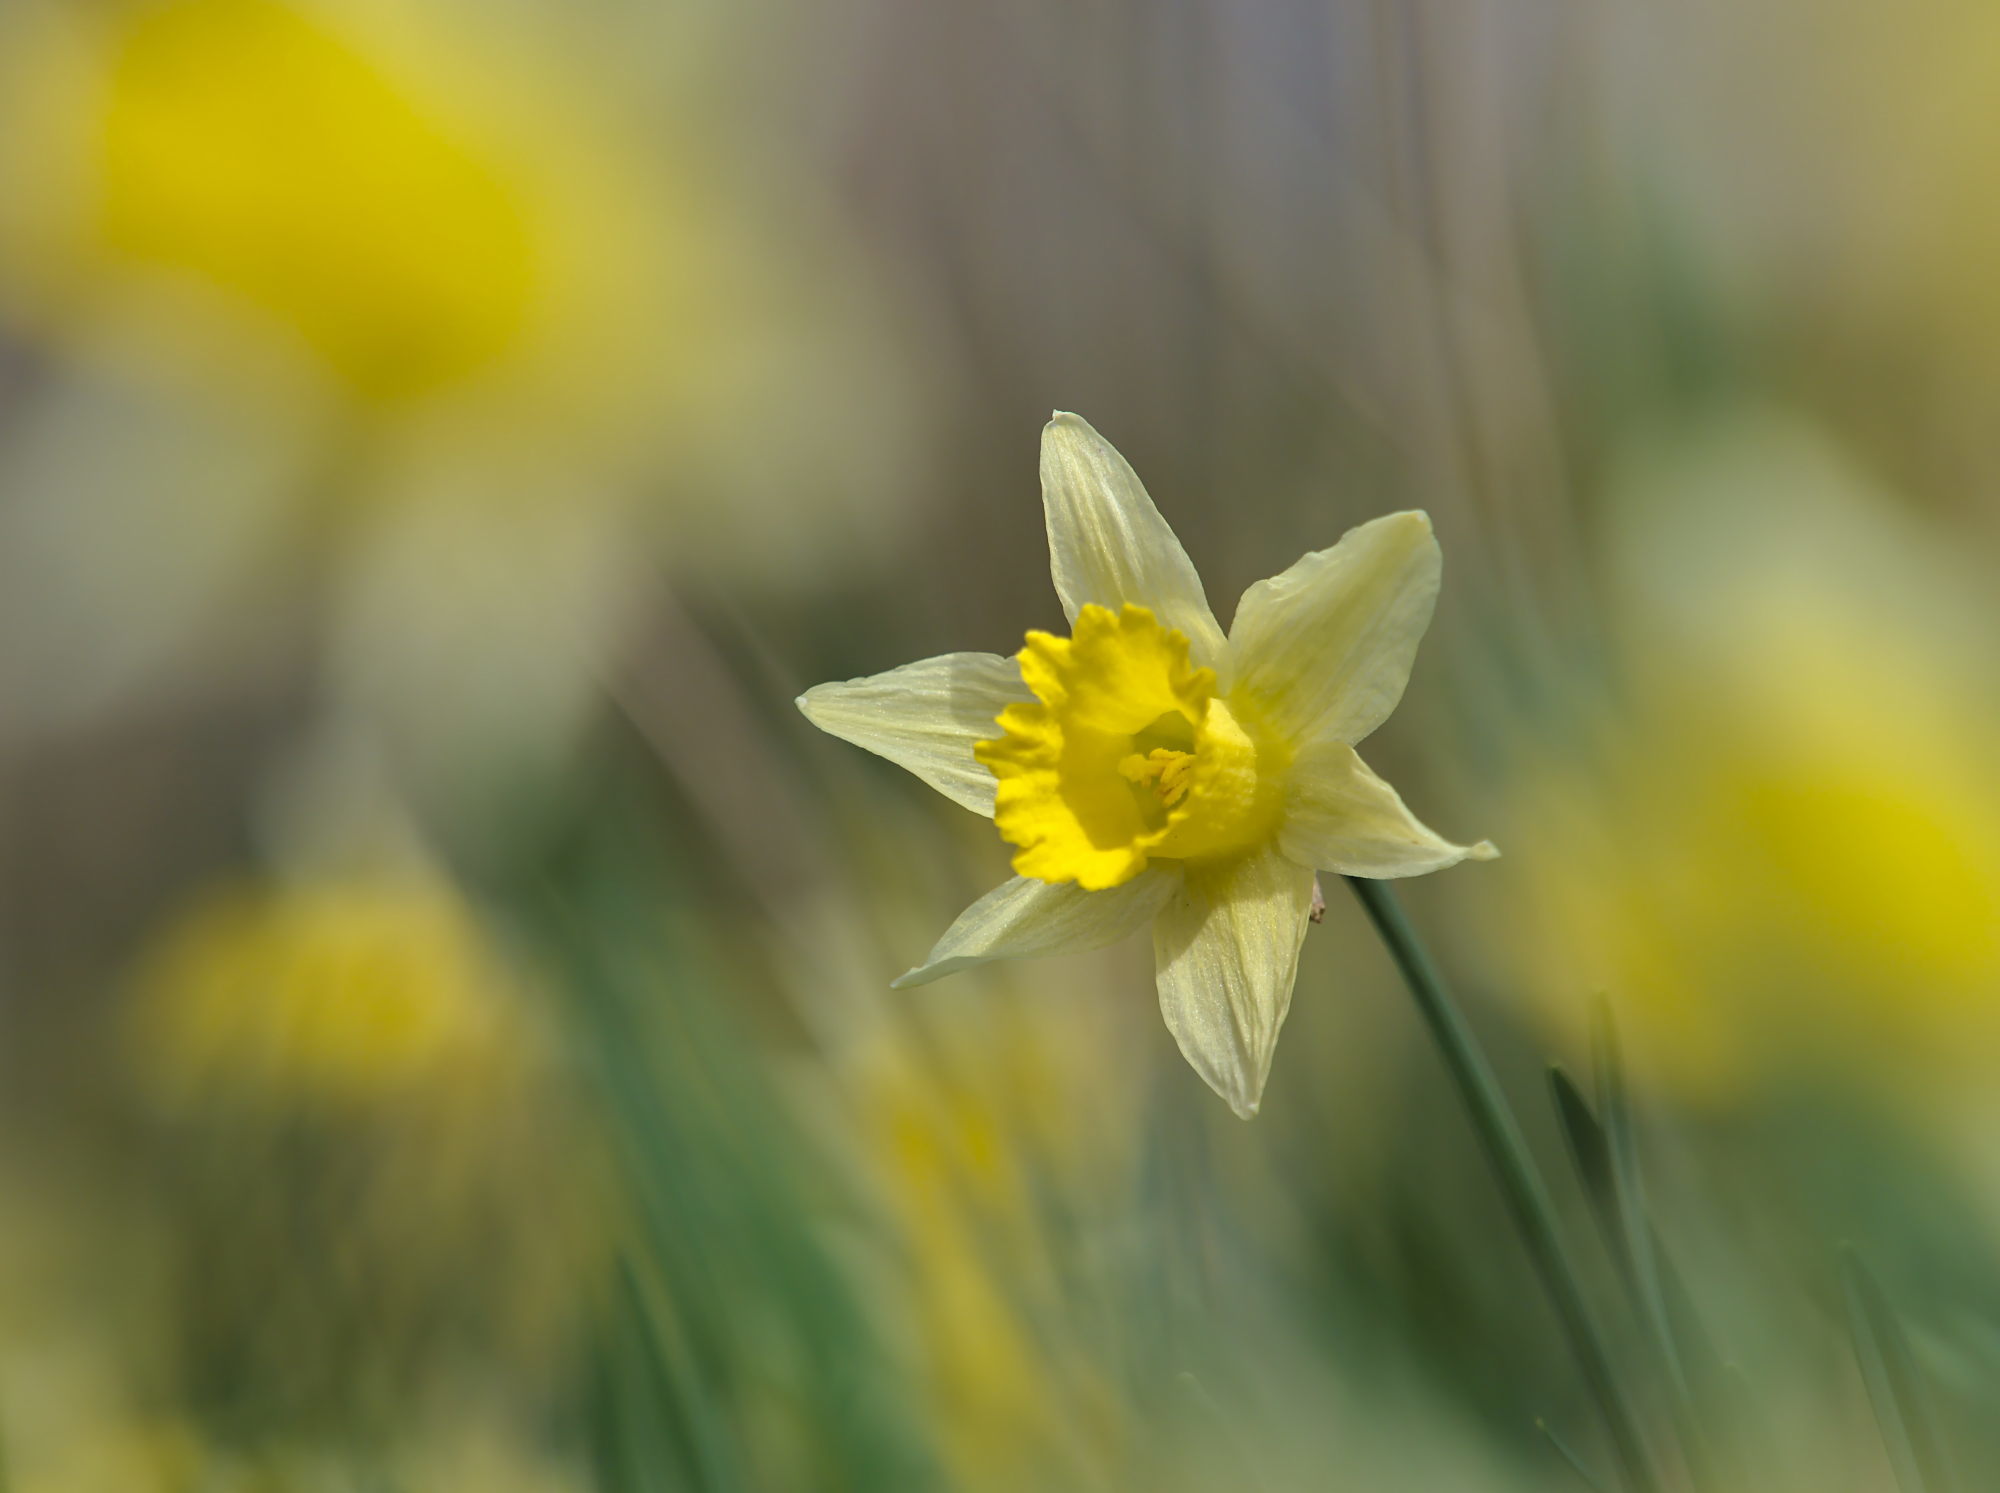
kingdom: Plantae
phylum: Tracheophyta
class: Liliopsida
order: Asparagales
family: Amaryllidaceae
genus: Narcissus
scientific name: Narcissus pseudonarcissus
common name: Daffodil
